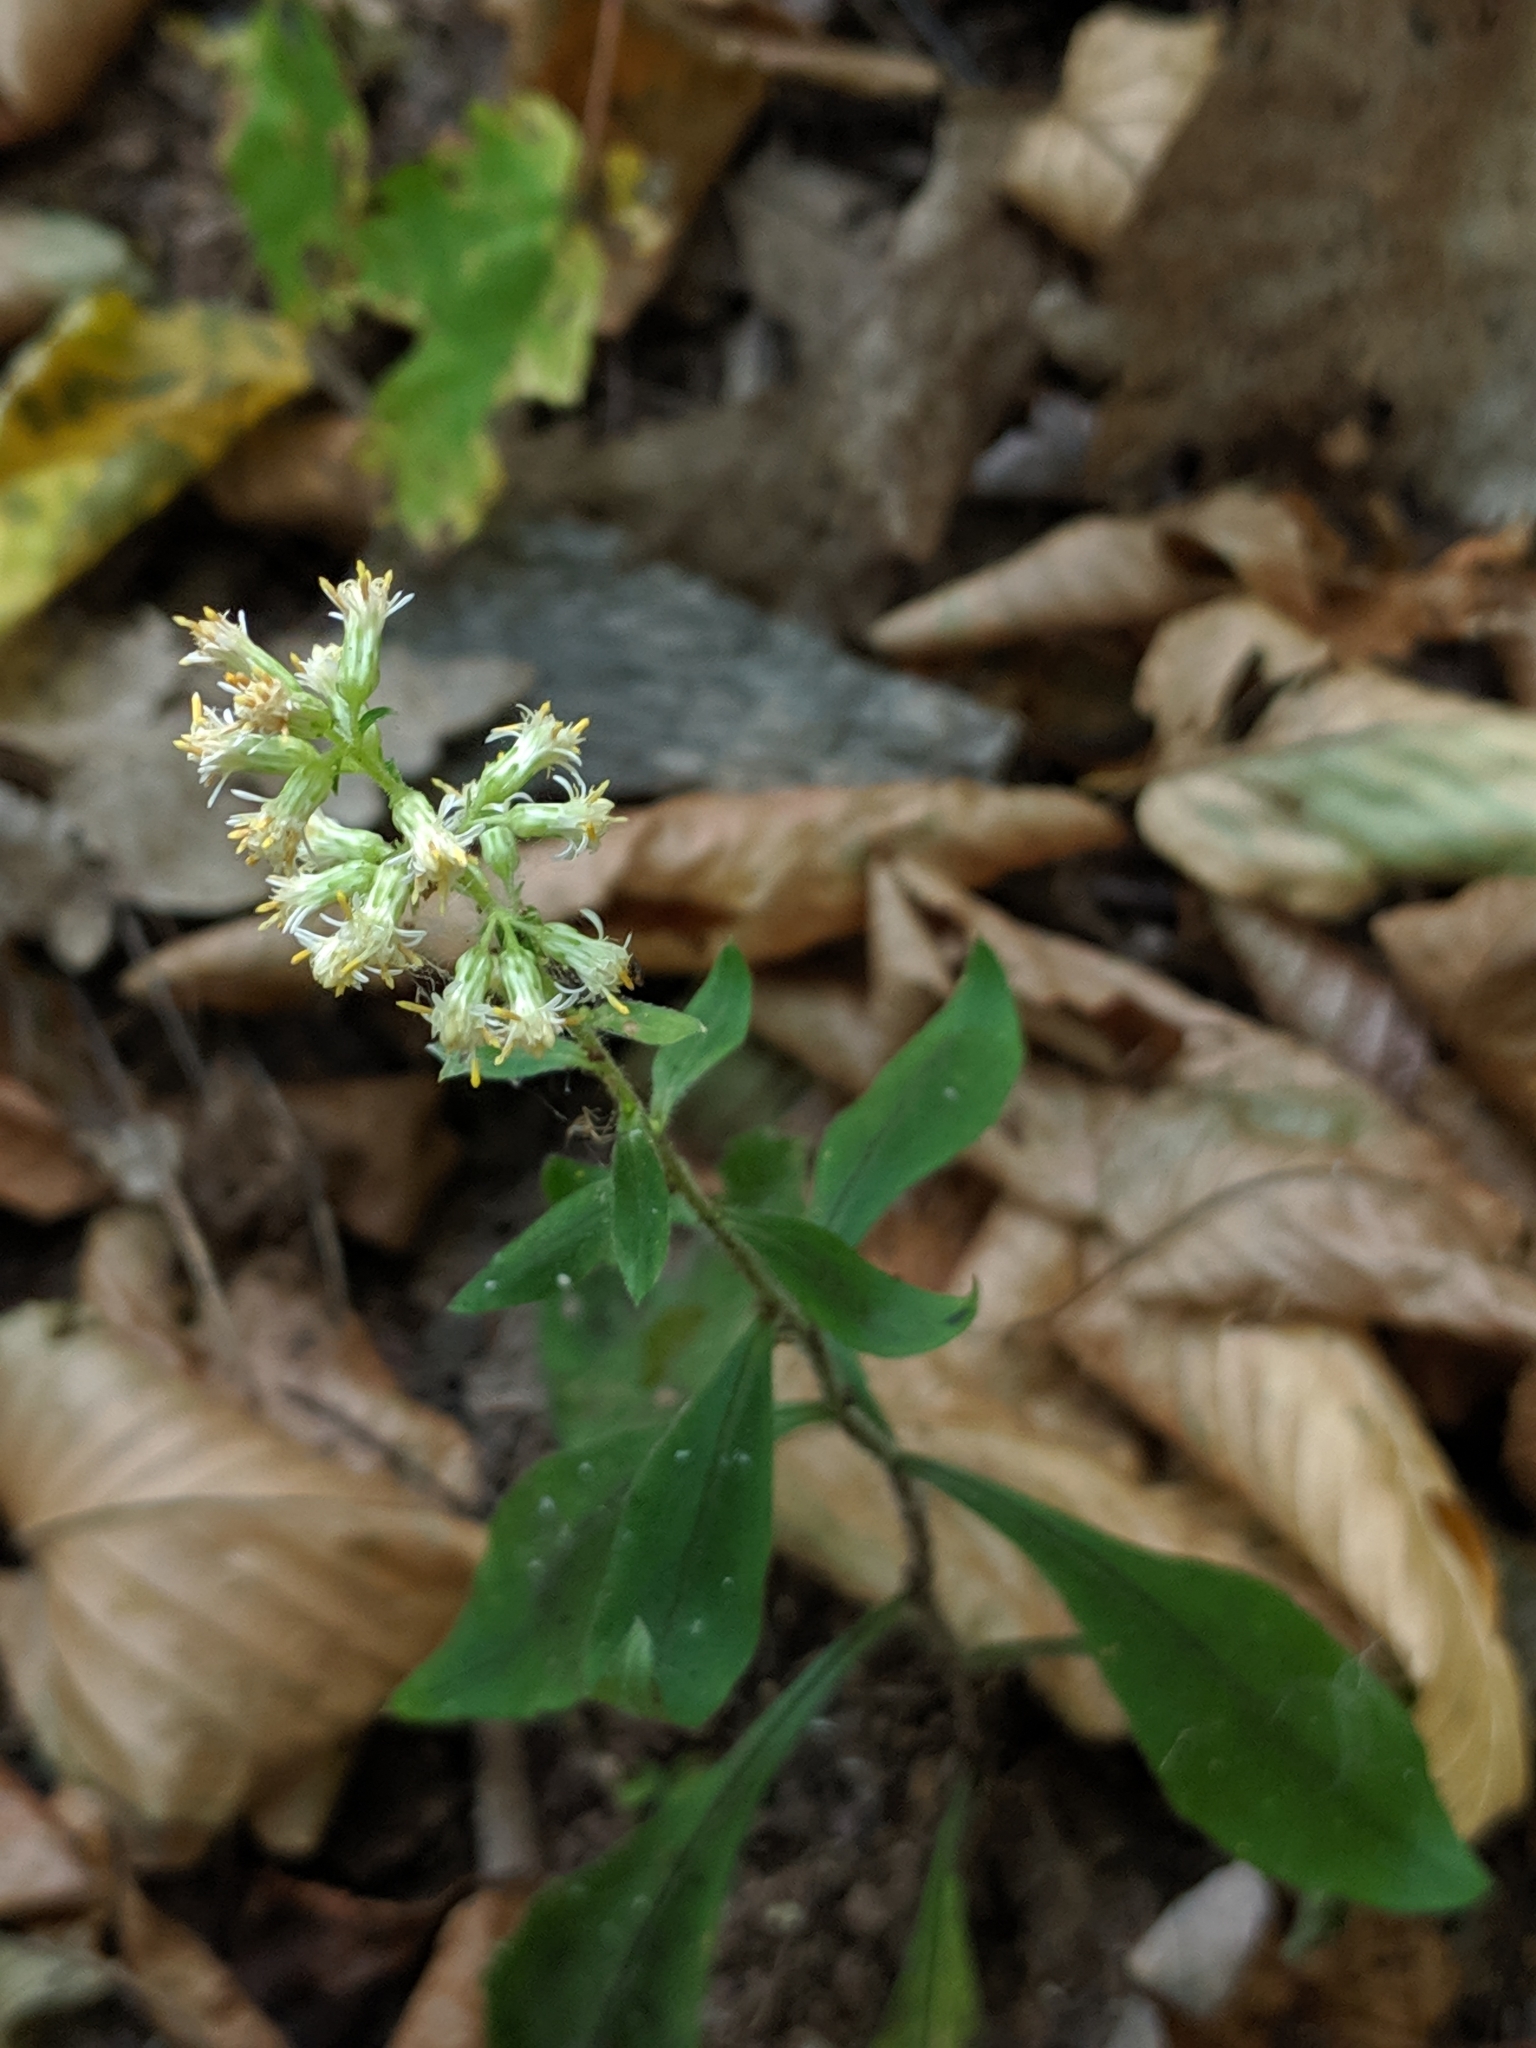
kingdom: Plantae
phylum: Tracheophyta
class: Magnoliopsida
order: Asterales
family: Asteraceae
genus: Solidago
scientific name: Solidago bicolor
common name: Silverrod
